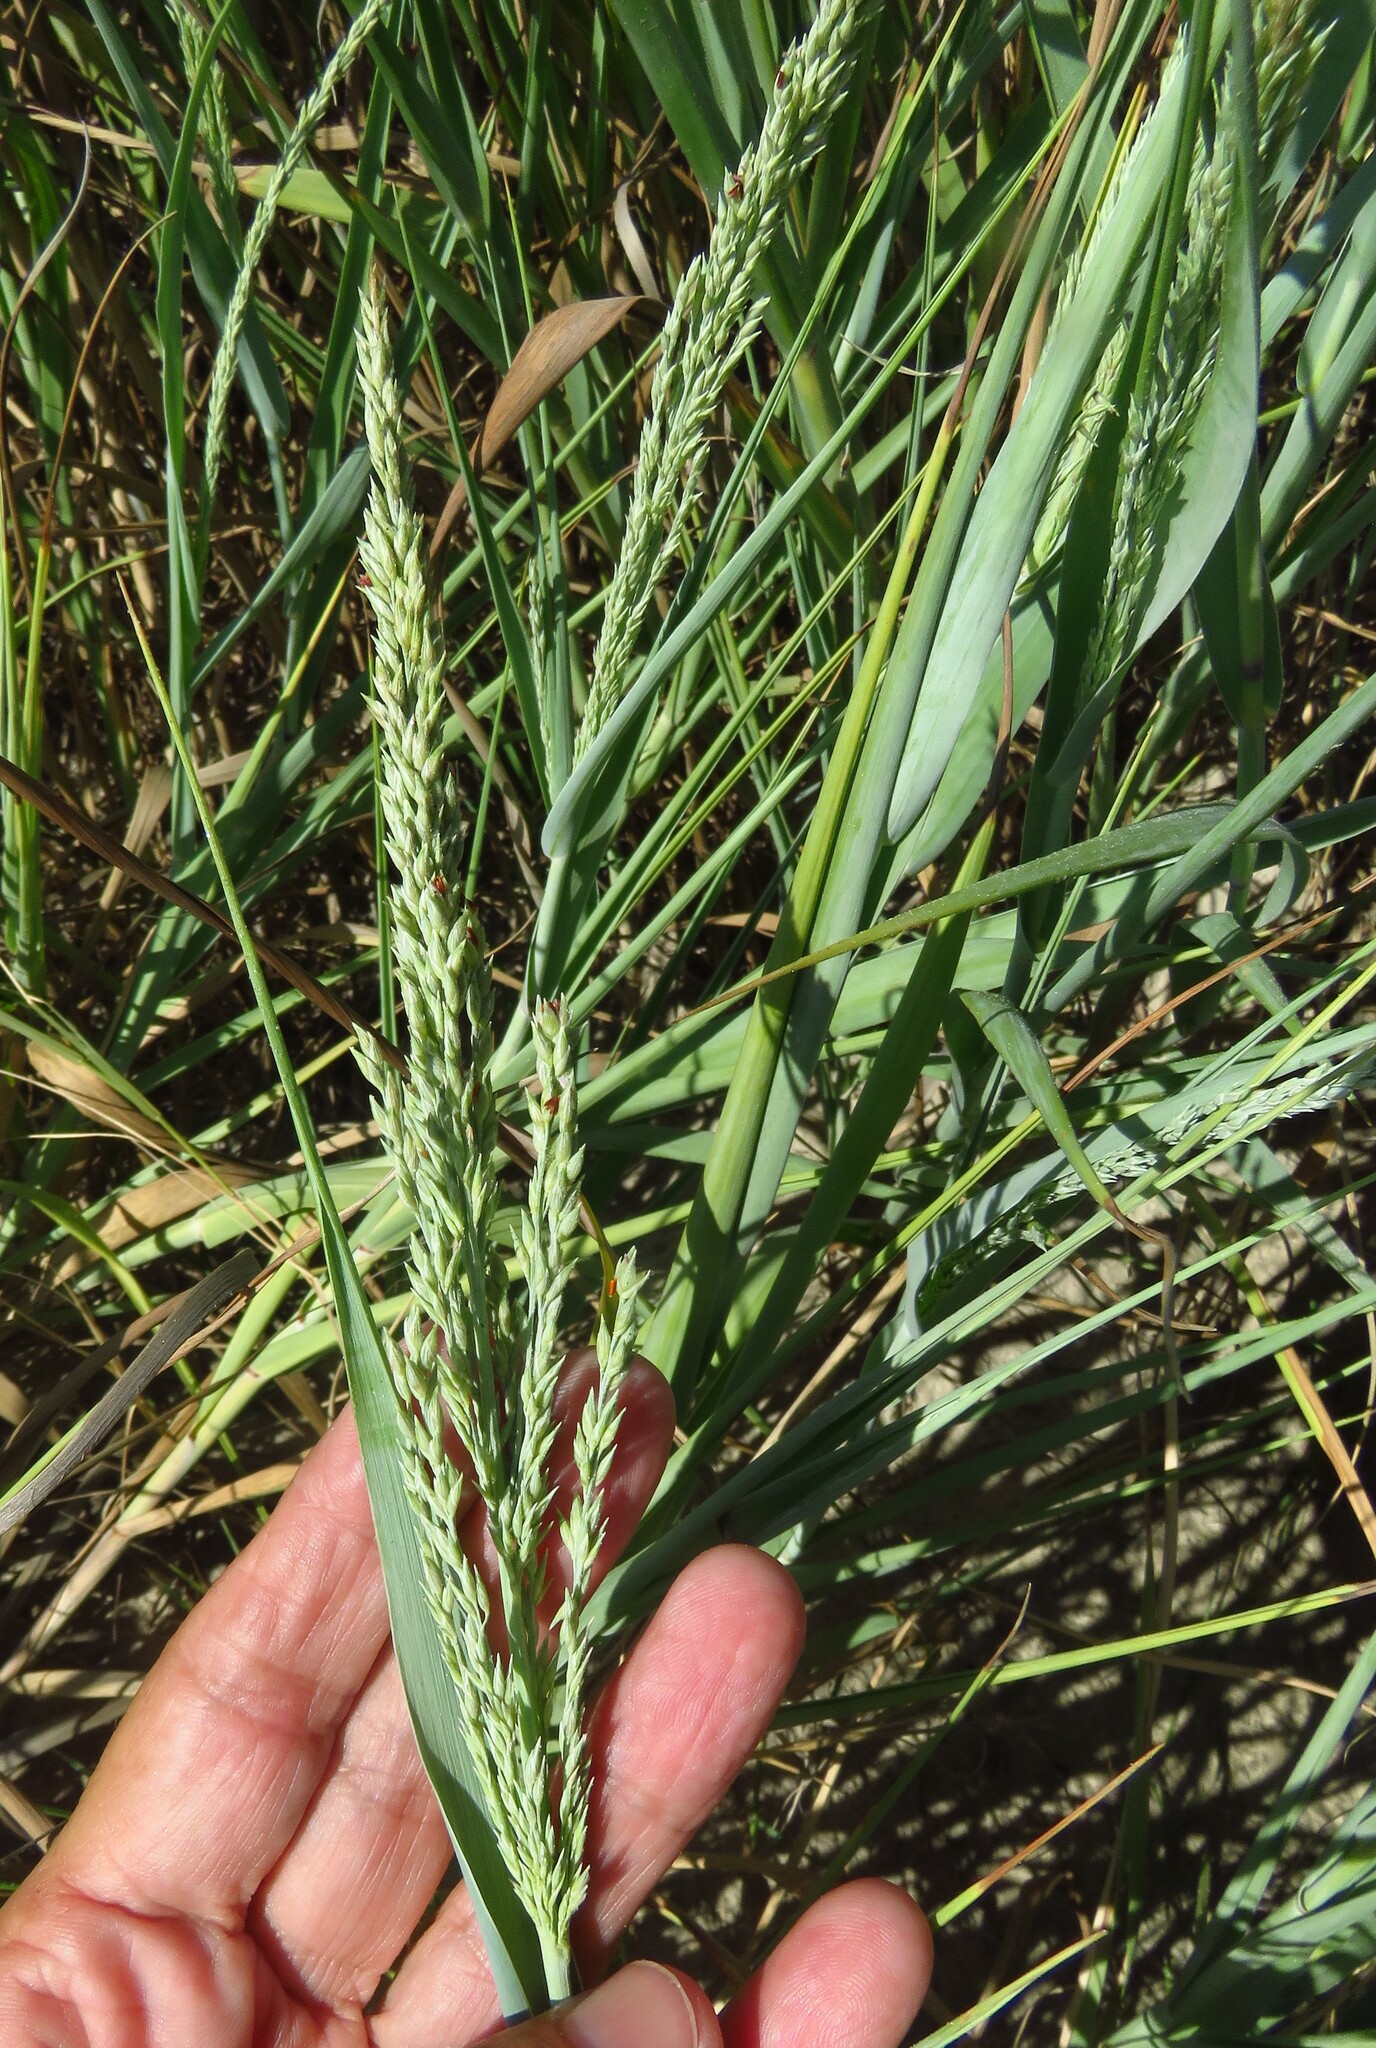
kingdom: Plantae
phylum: Tracheophyta
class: Liliopsida
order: Poales
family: Poaceae
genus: Panicum
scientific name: Panicum amarum
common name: Bitter panicum
